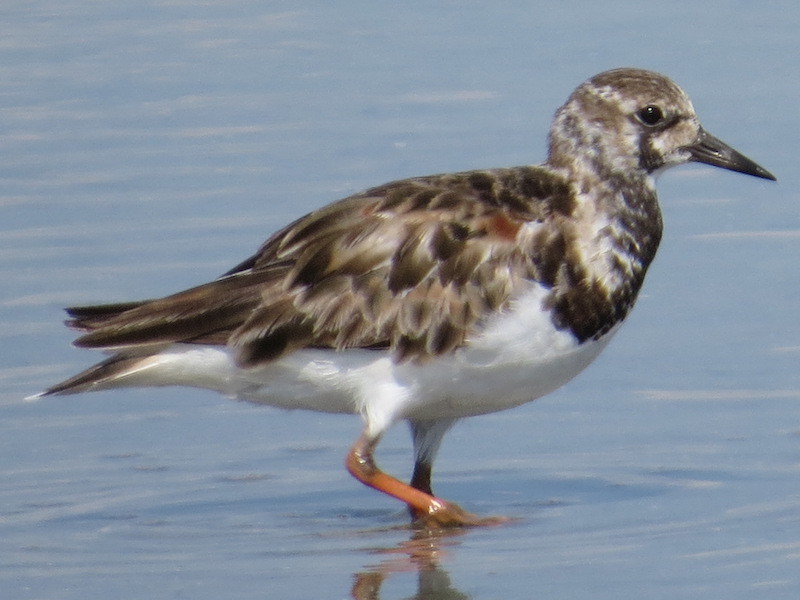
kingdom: Animalia
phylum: Chordata
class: Aves
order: Charadriiformes
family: Scolopacidae
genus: Arenaria
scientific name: Arenaria interpres
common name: Ruddy turnstone
